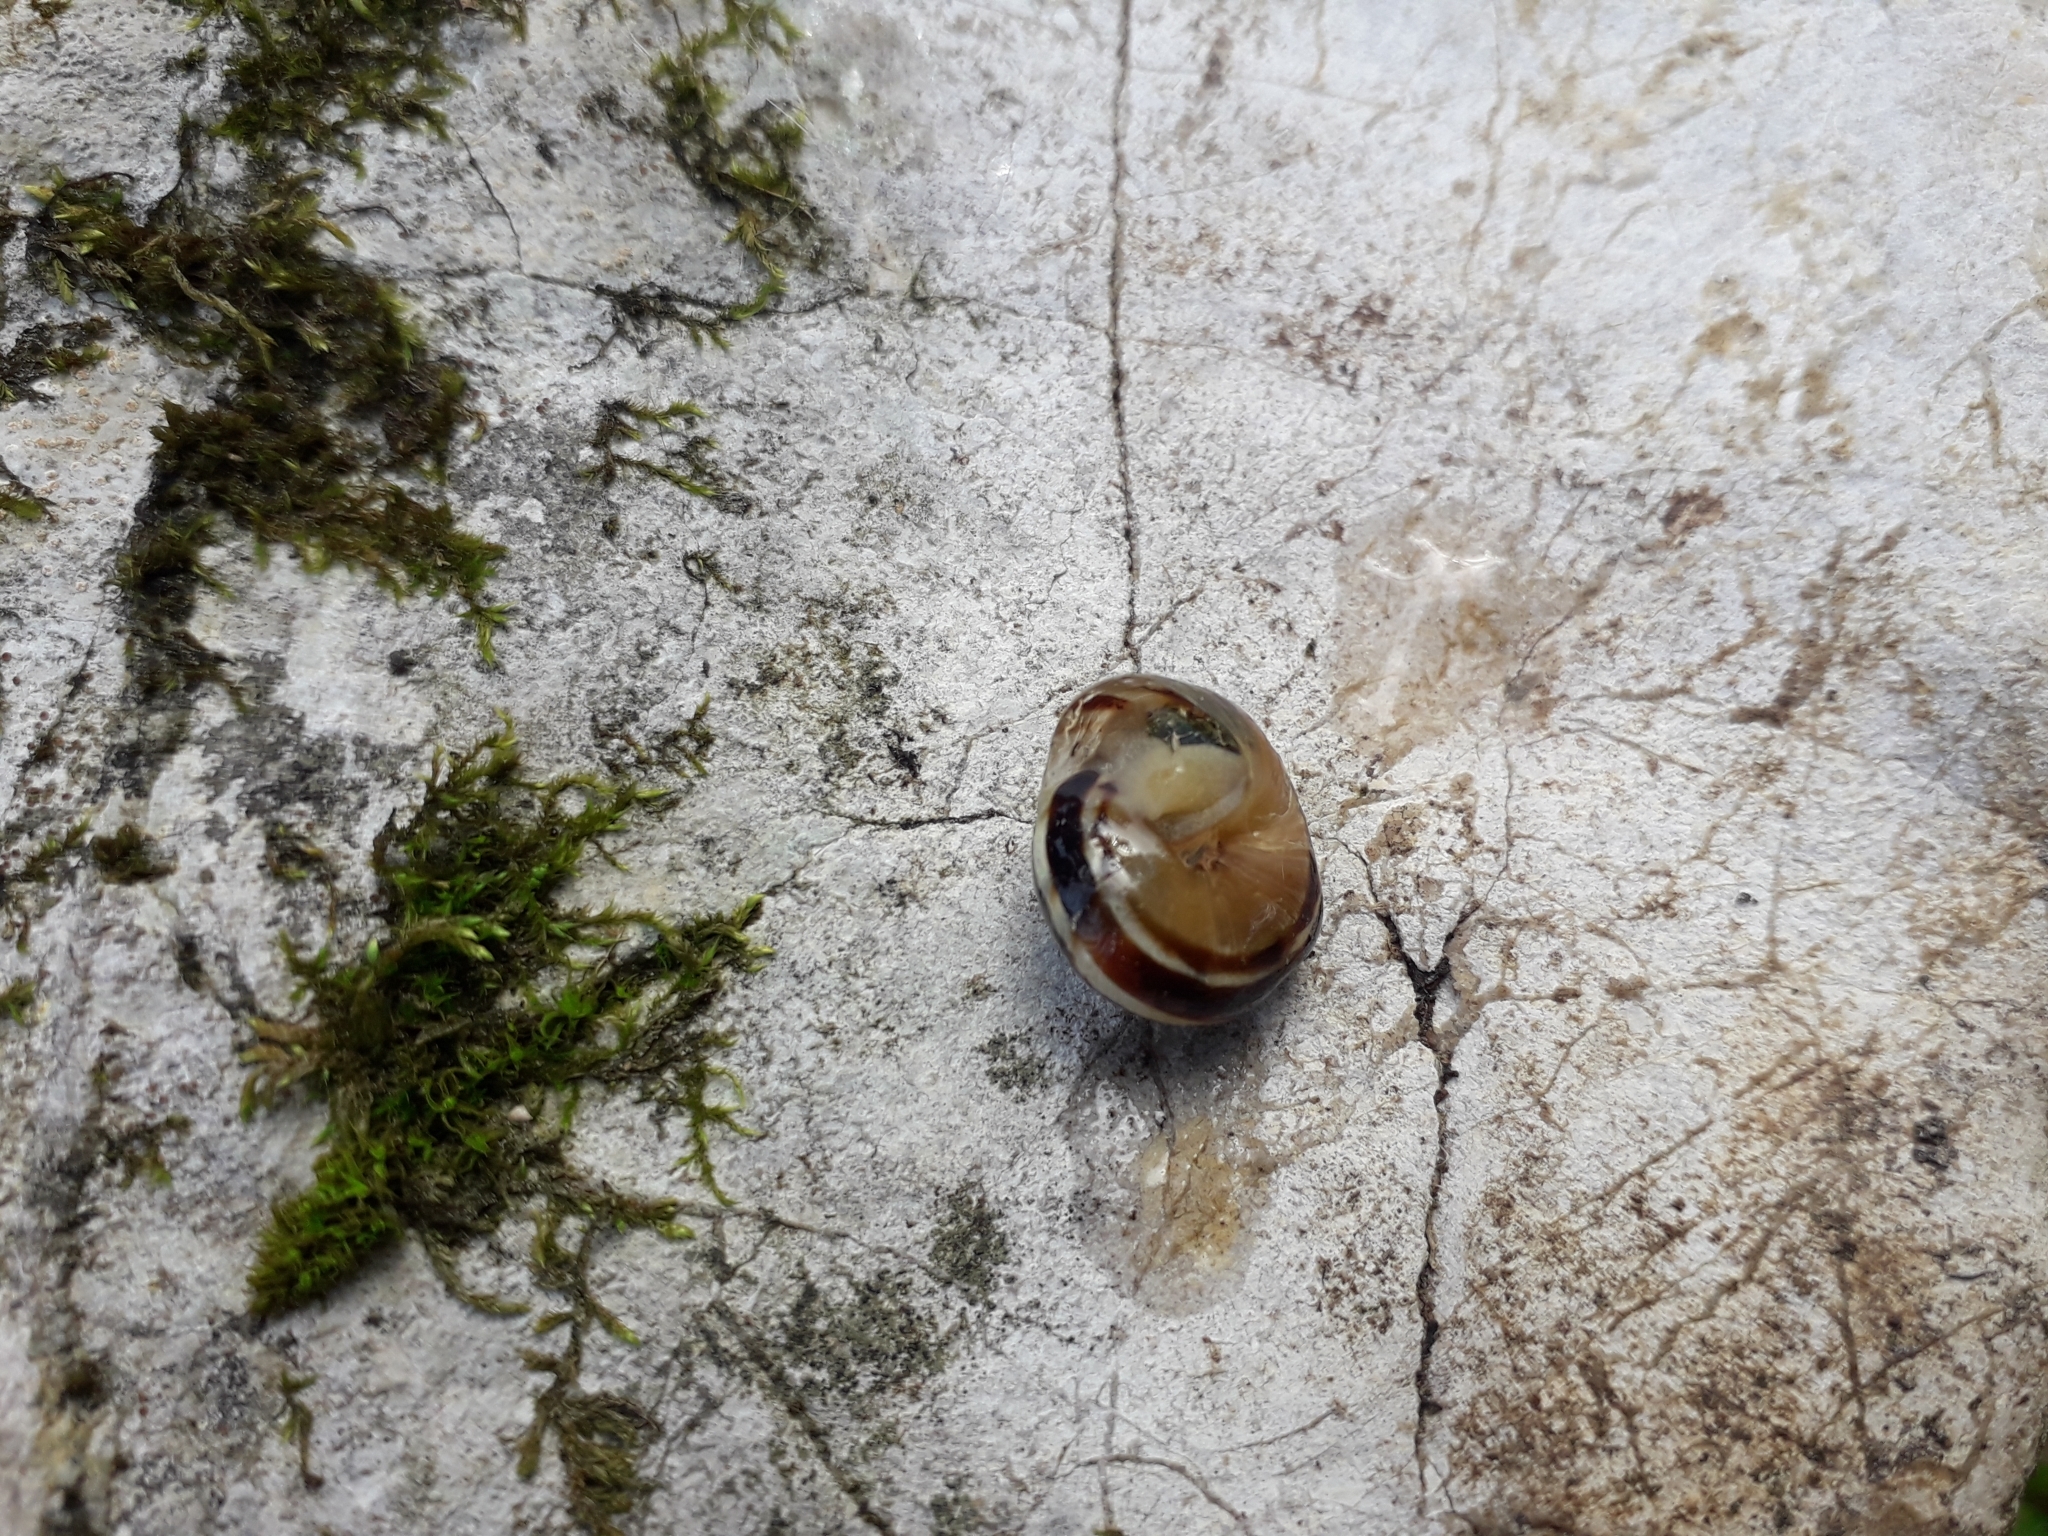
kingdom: Animalia
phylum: Mollusca
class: Gastropoda
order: Stylommatophora
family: Helicidae
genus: Macularia
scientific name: Macularia sylvatica
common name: Hélice sylvatique
